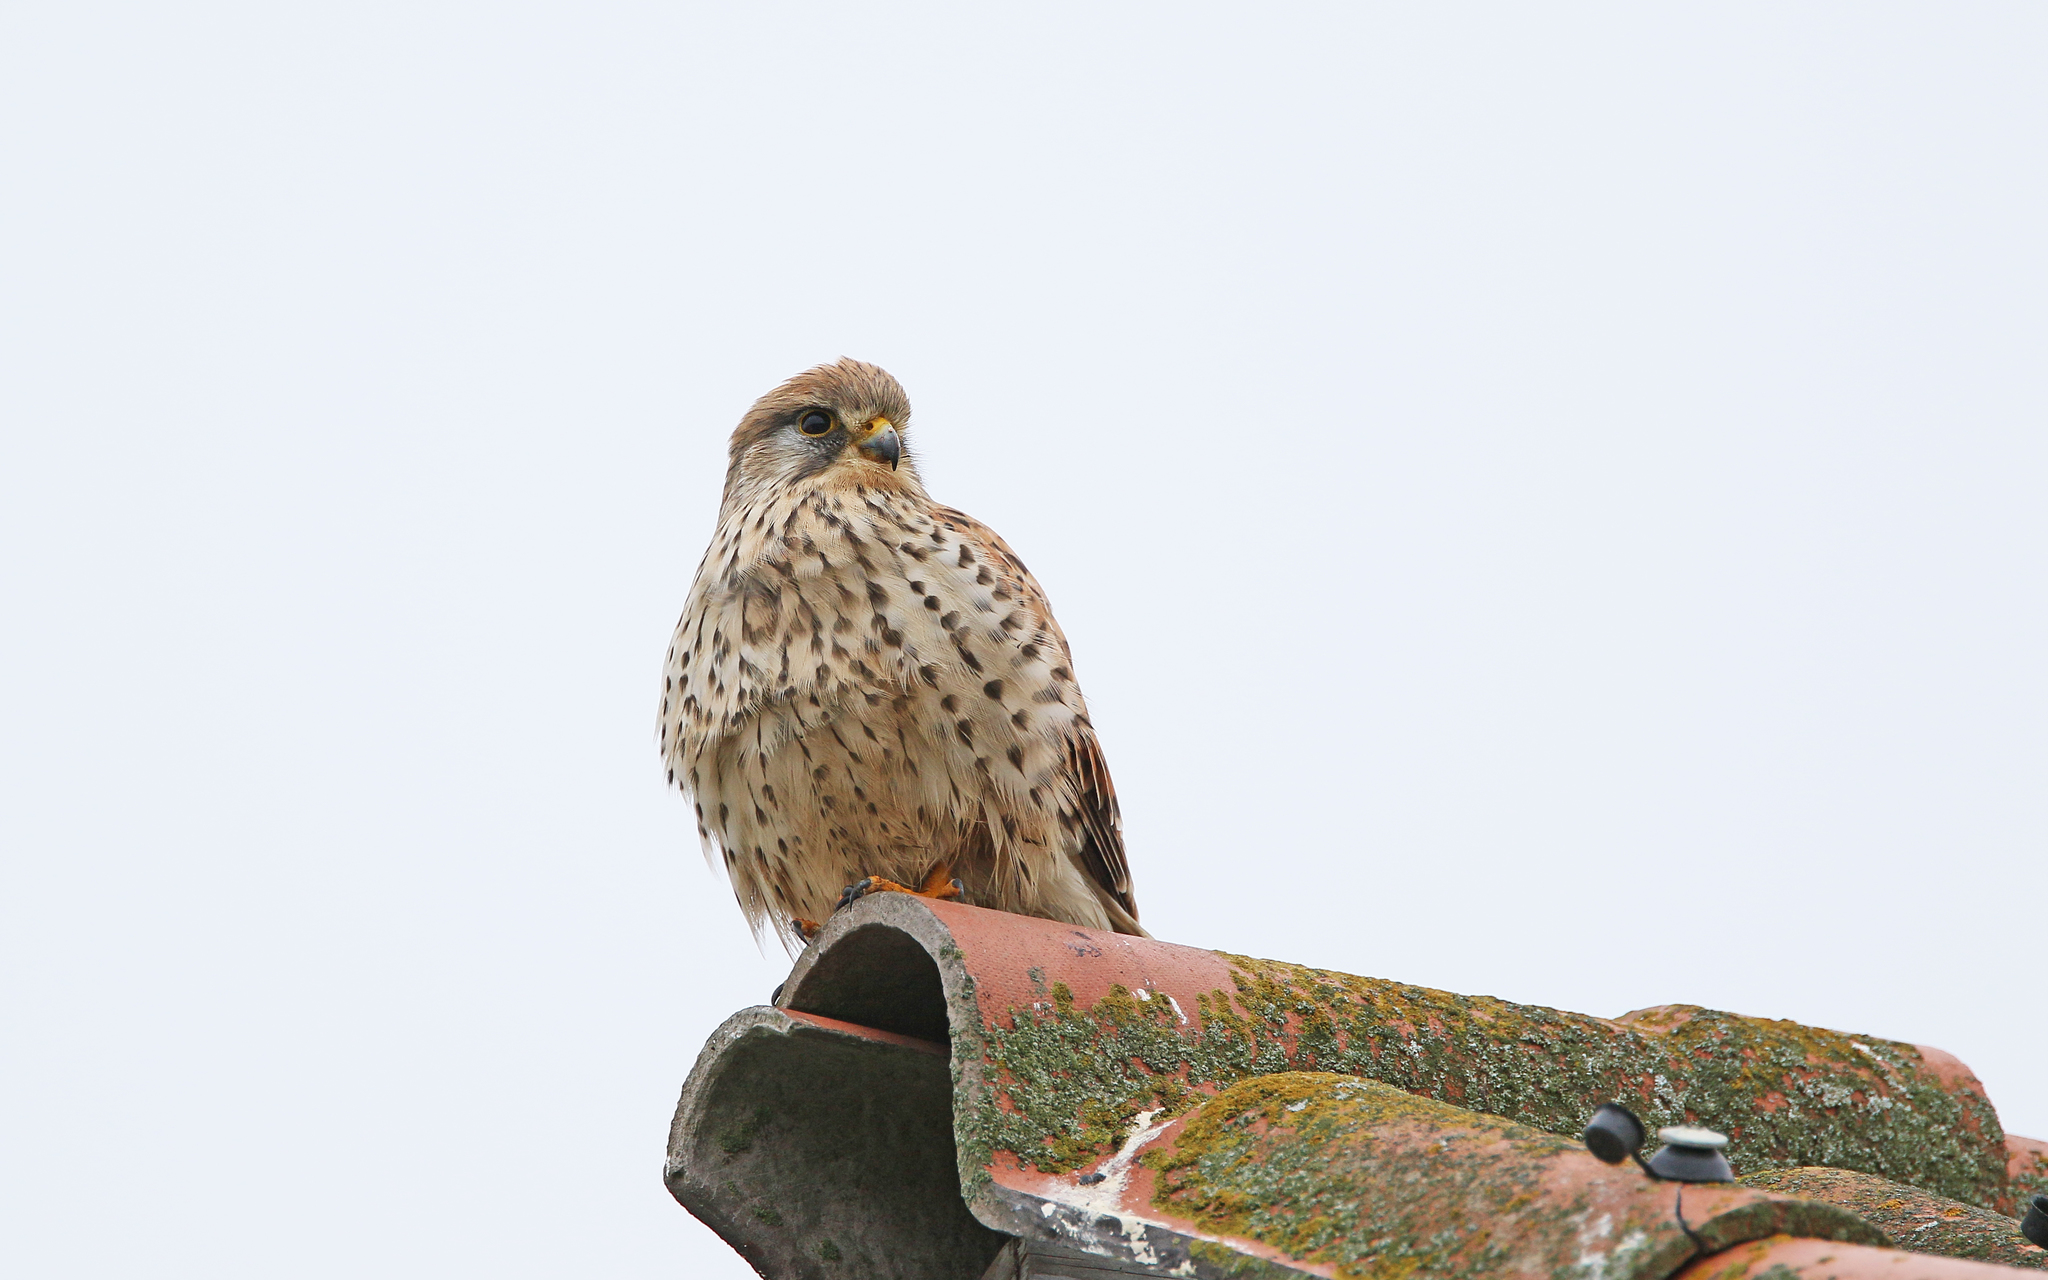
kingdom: Animalia
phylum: Chordata
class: Aves
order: Falconiformes
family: Falconidae
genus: Falco
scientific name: Falco tinnunculus
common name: Common kestrel
